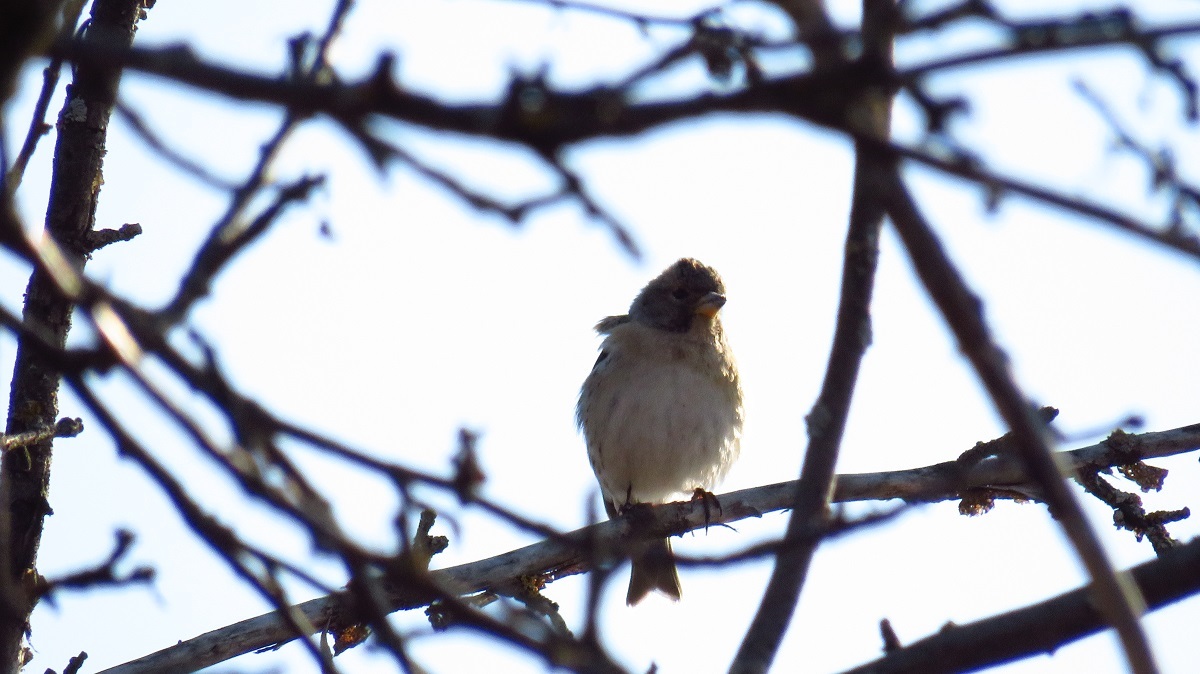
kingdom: Animalia
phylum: Chordata
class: Aves
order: Passeriformes
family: Fringillidae
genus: Fringilla
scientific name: Fringilla montifringilla
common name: Brambling
